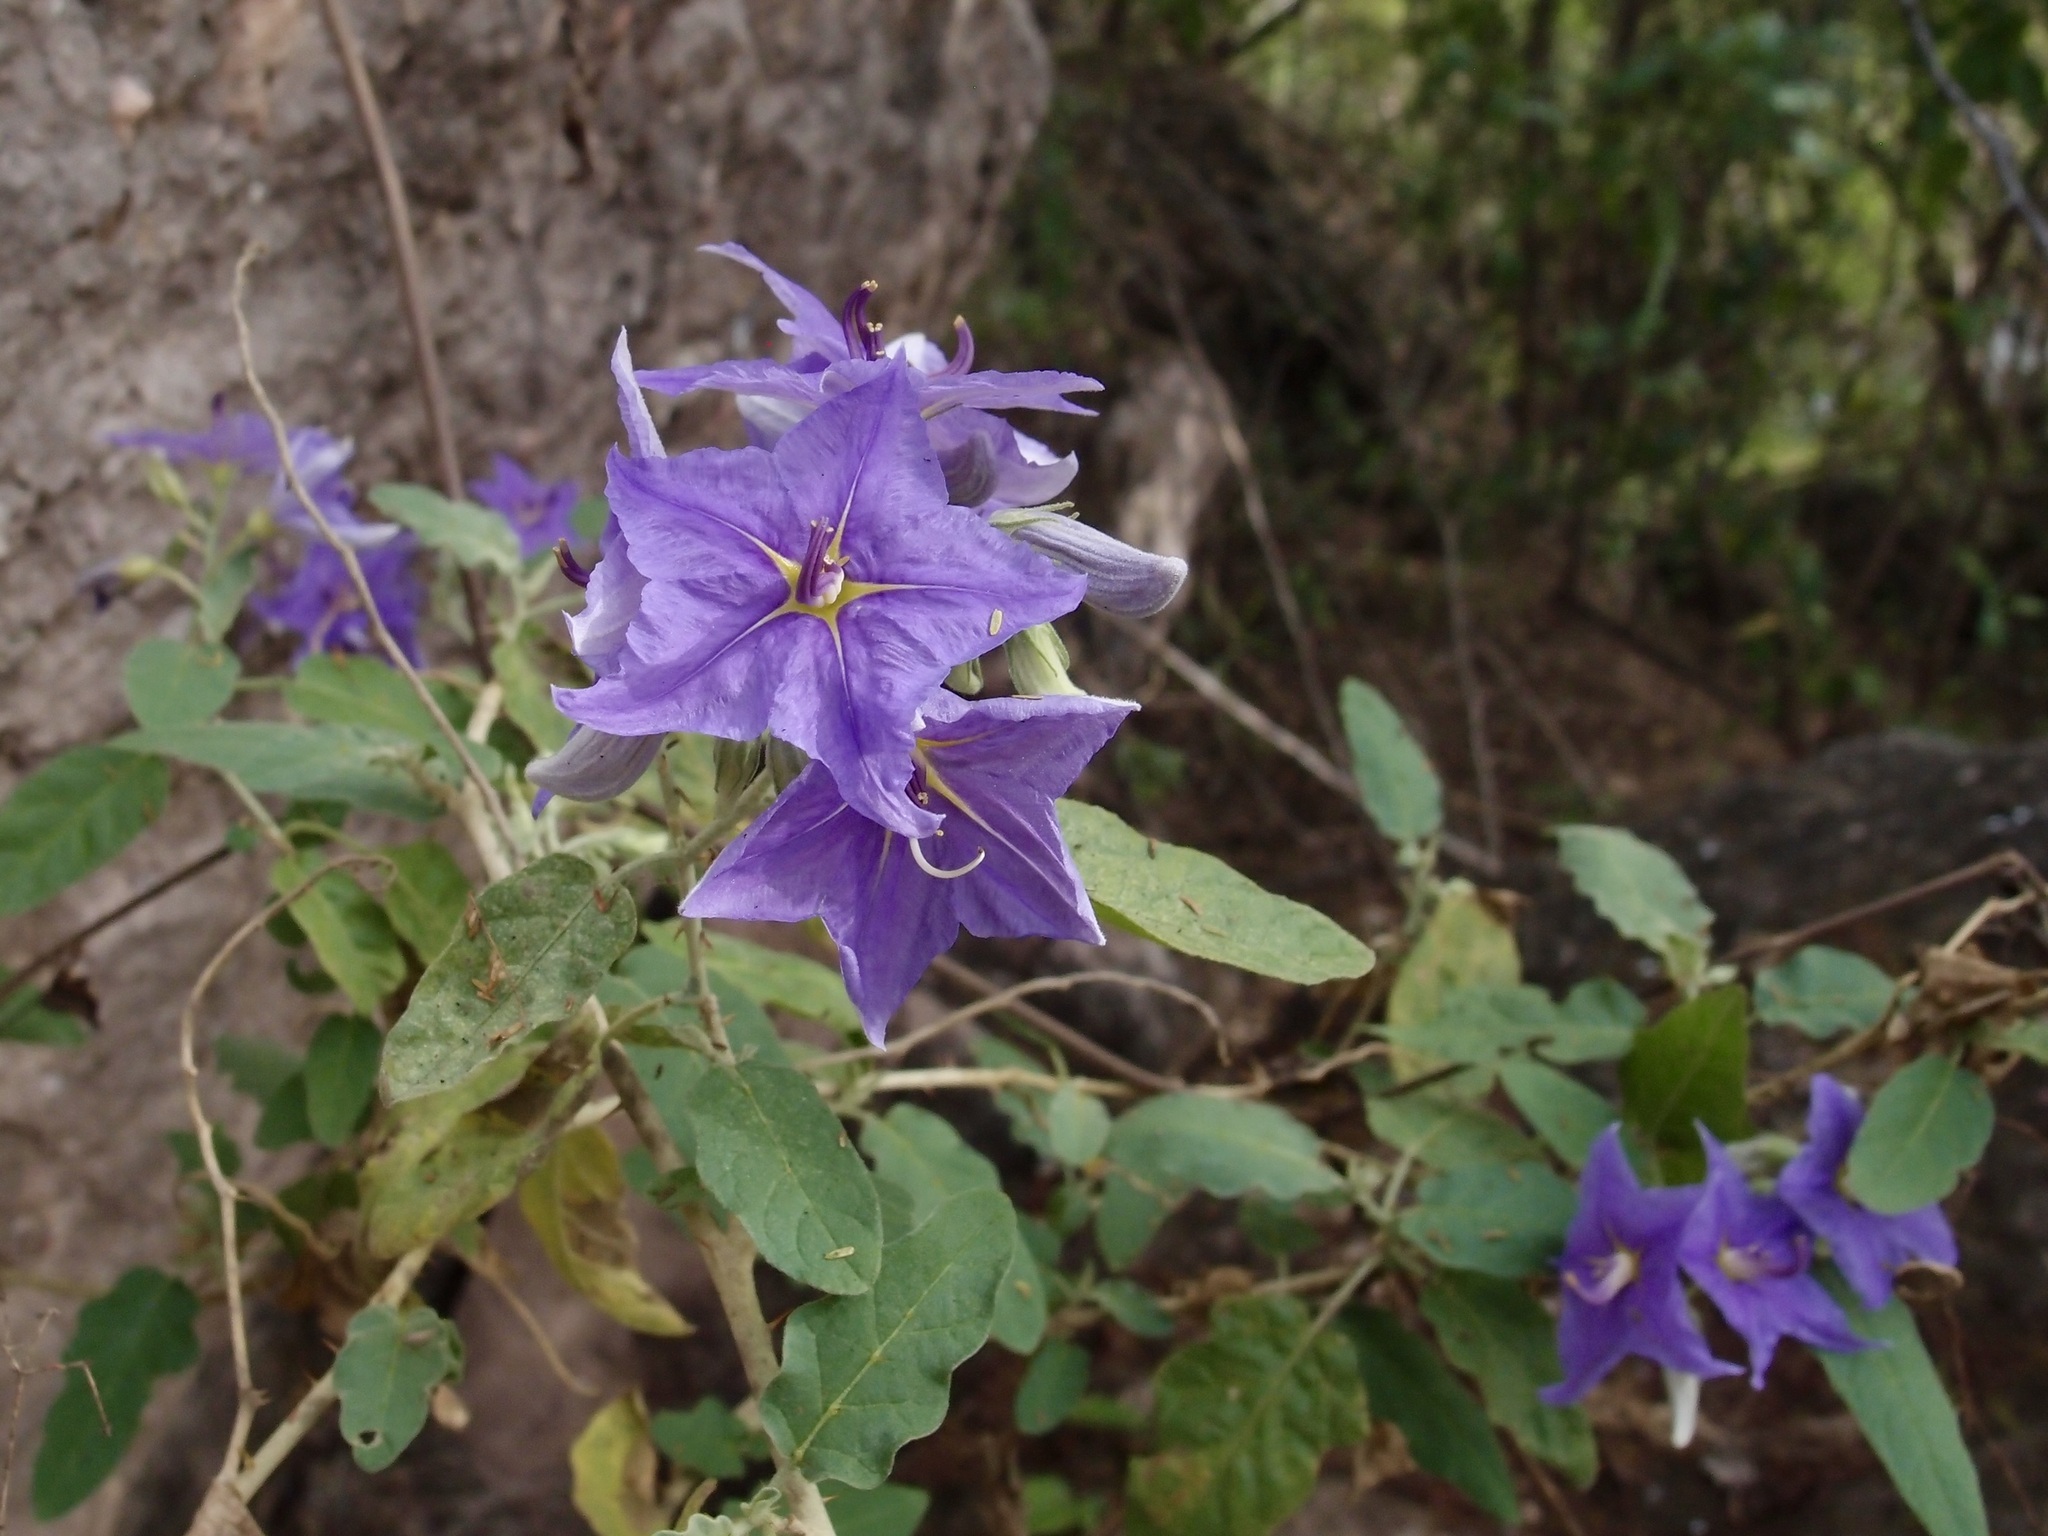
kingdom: Plantae
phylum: Tracheophyta
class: Magnoliopsida
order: Solanales
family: Solanaceae
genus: Solanum
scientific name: Solanum houstonii
